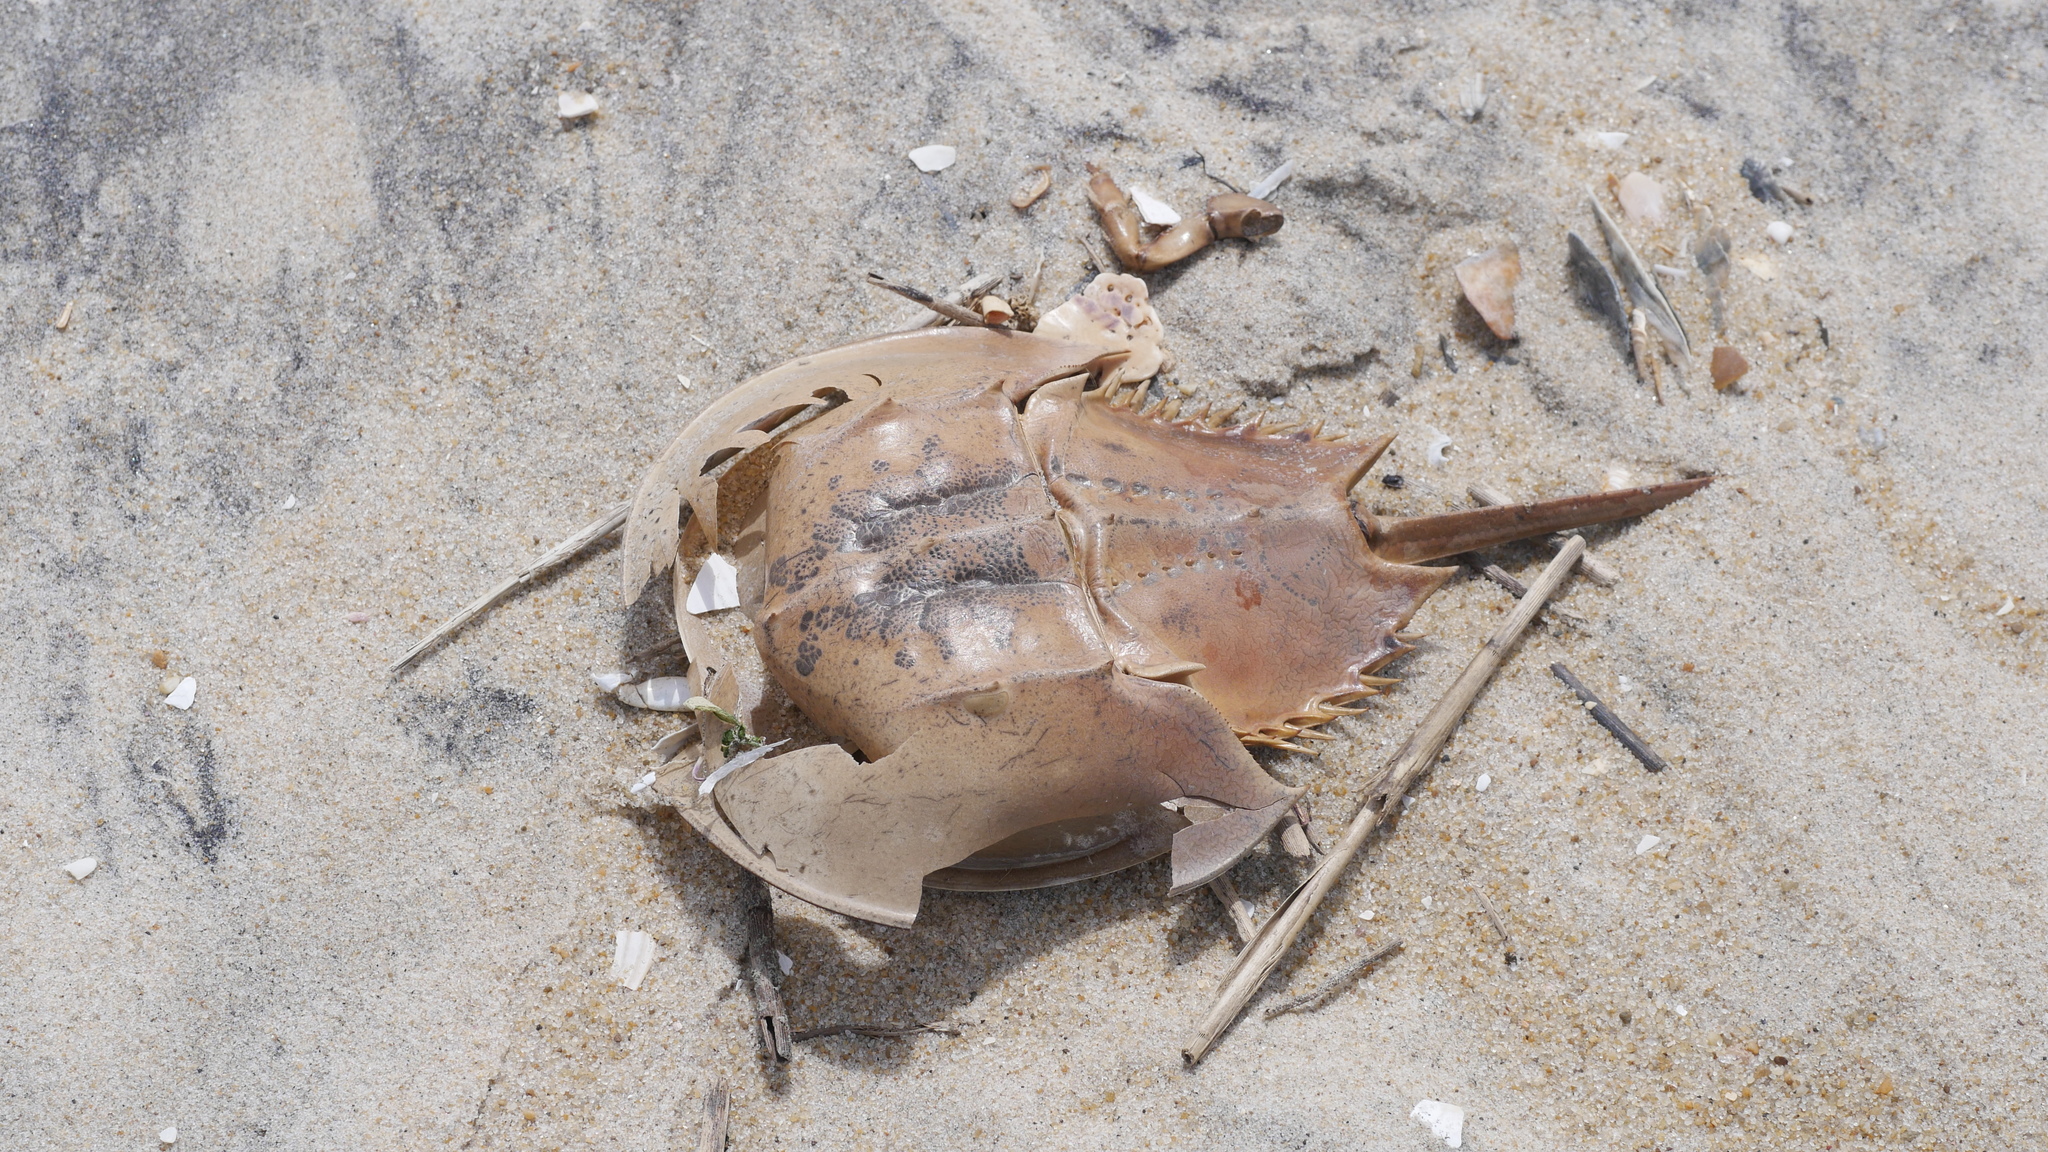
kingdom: Animalia
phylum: Arthropoda
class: Merostomata
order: Xiphosurida
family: Limulidae
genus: Limulus
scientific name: Limulus polyphemus
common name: Horseshoe crab
